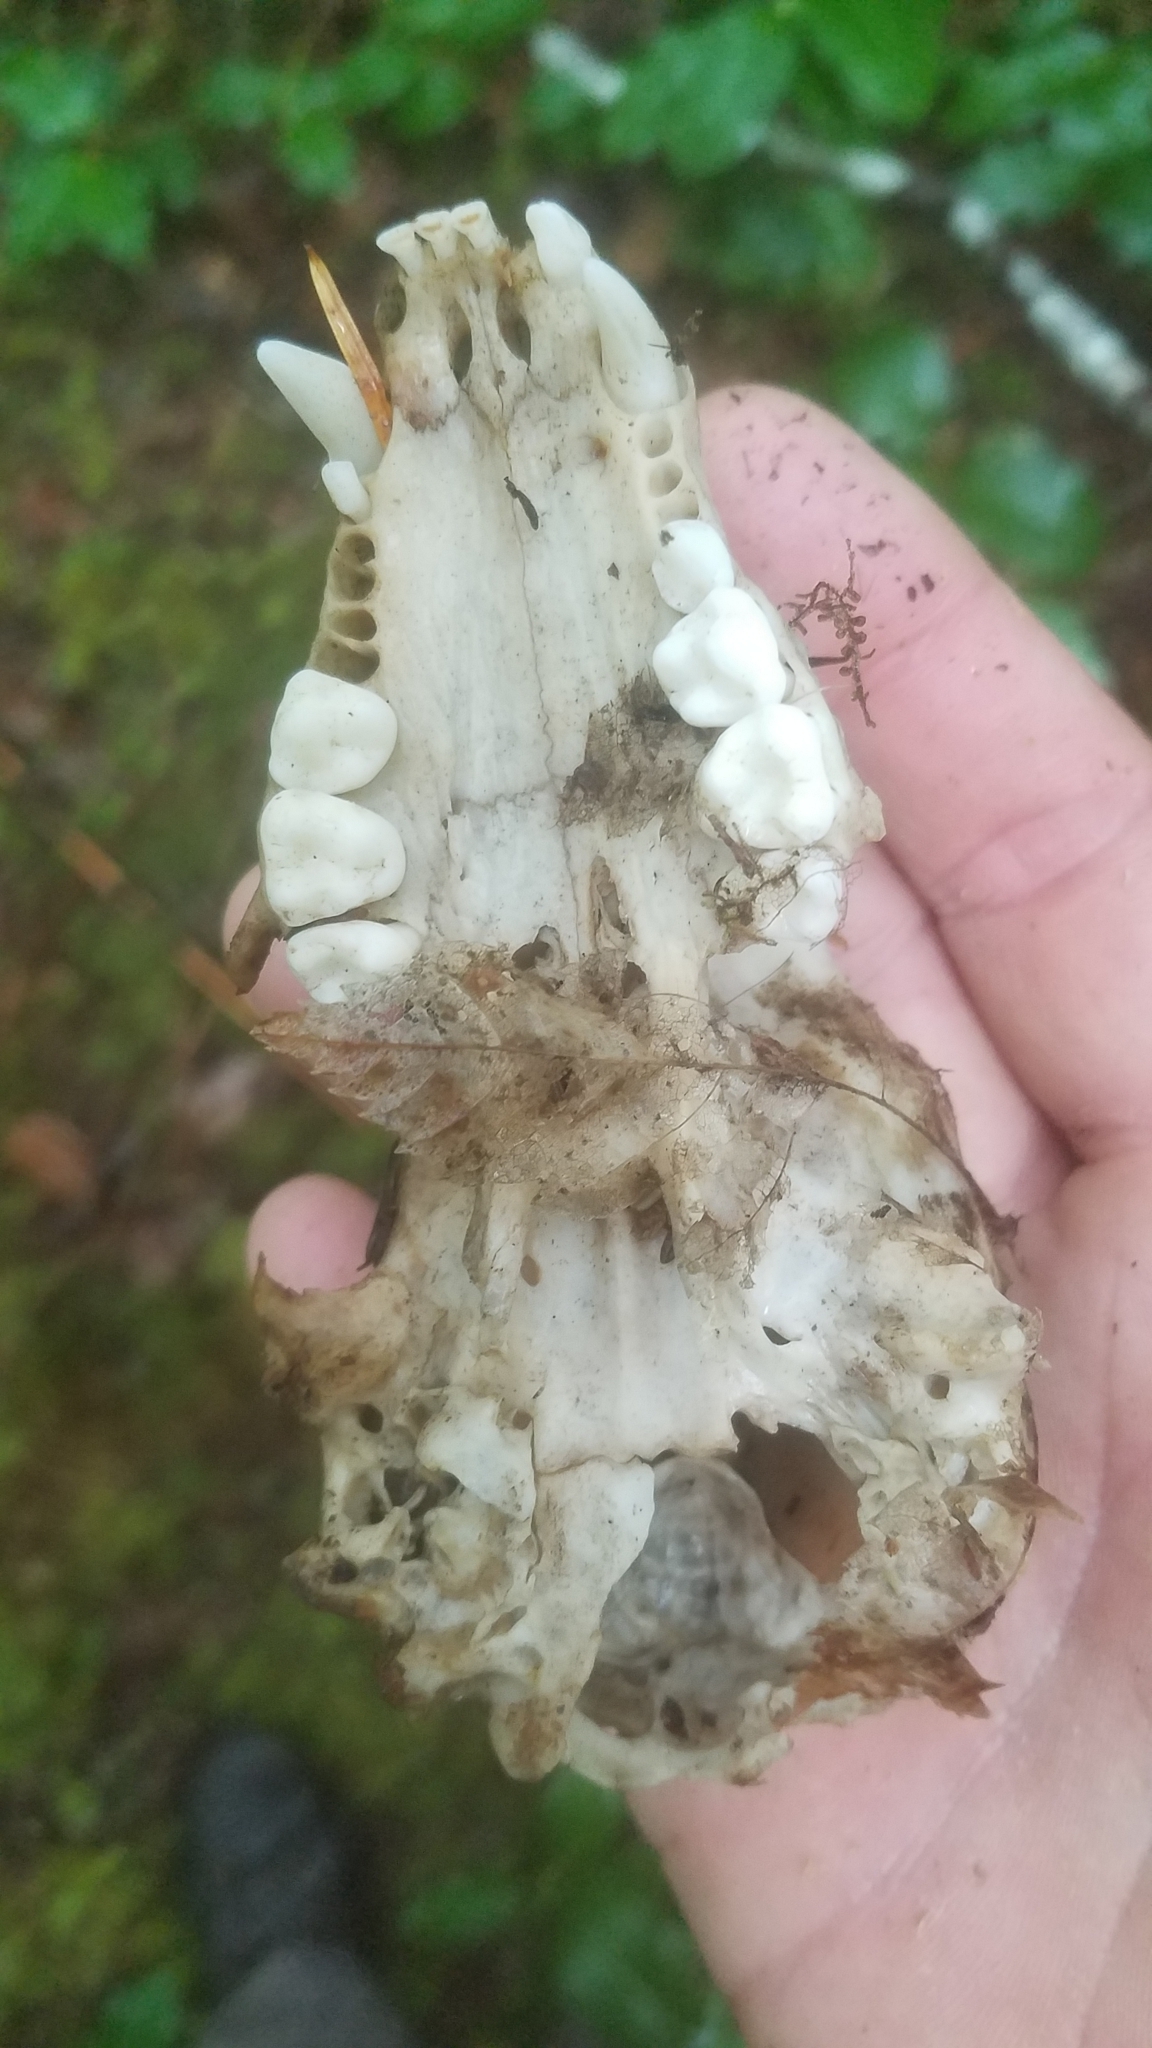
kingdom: Animalia
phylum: Chordata
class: Mammalia
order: Carnivora
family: Procyonidae
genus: Procyon
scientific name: Procyon lotor
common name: Raccoon
